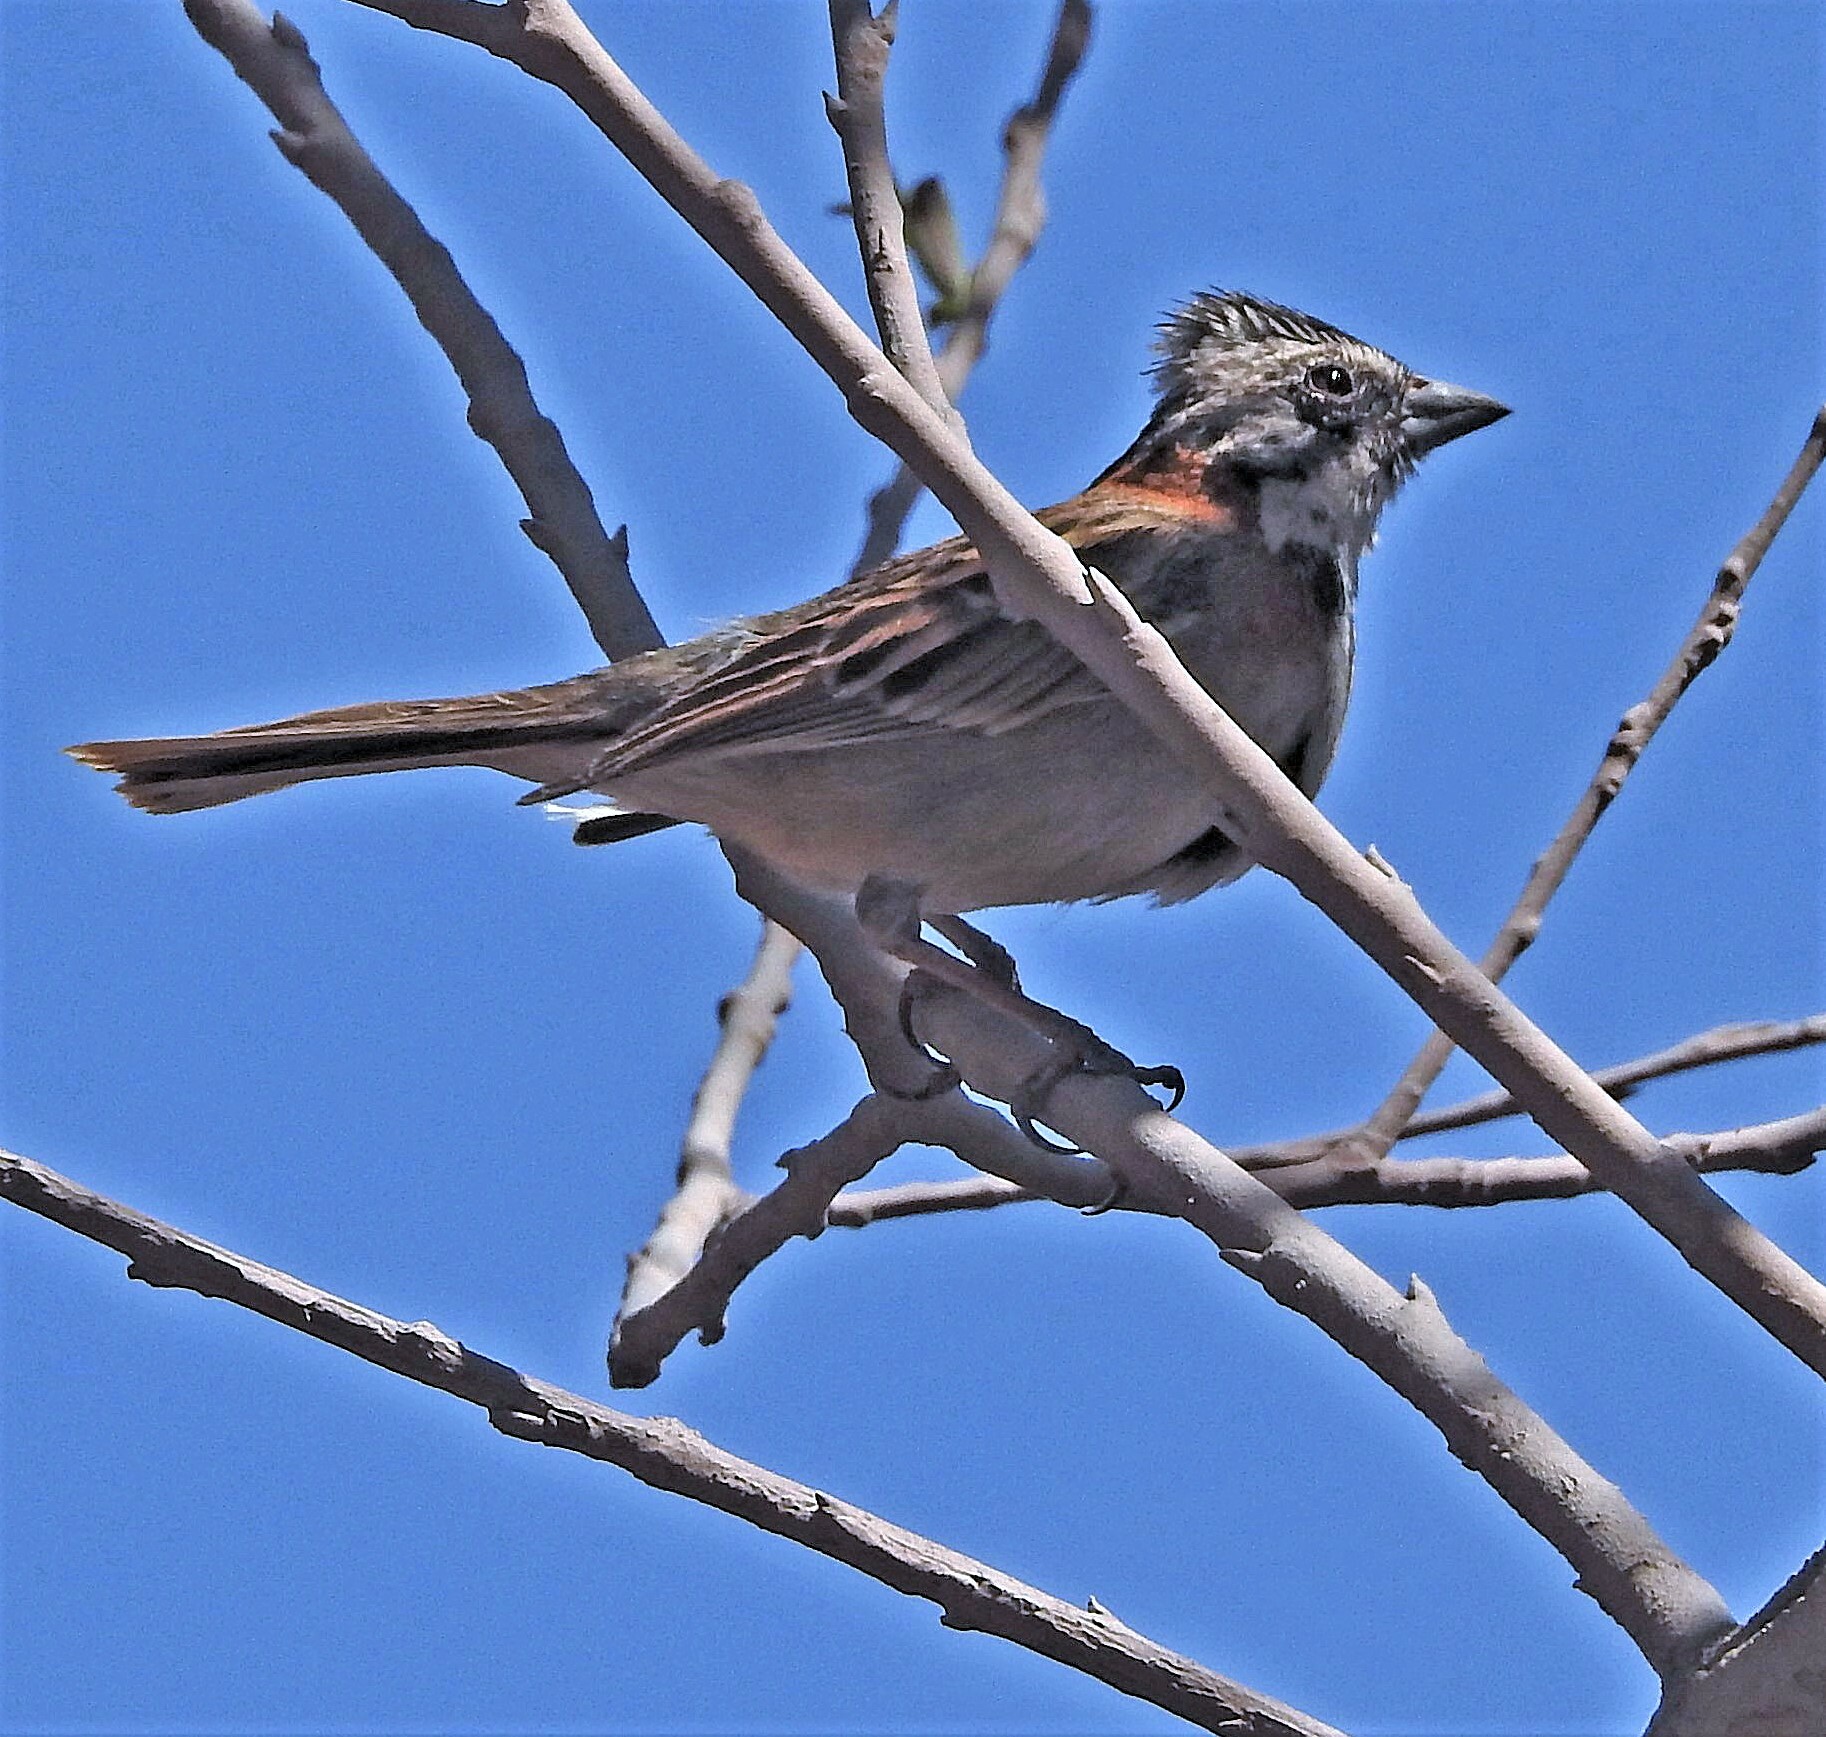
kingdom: Animalia
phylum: Chordata
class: Aves
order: Passeriformes
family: Passerellidae
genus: Zonotrichia
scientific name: Zonotrichia capensis
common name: Rufous-collared sparrow
